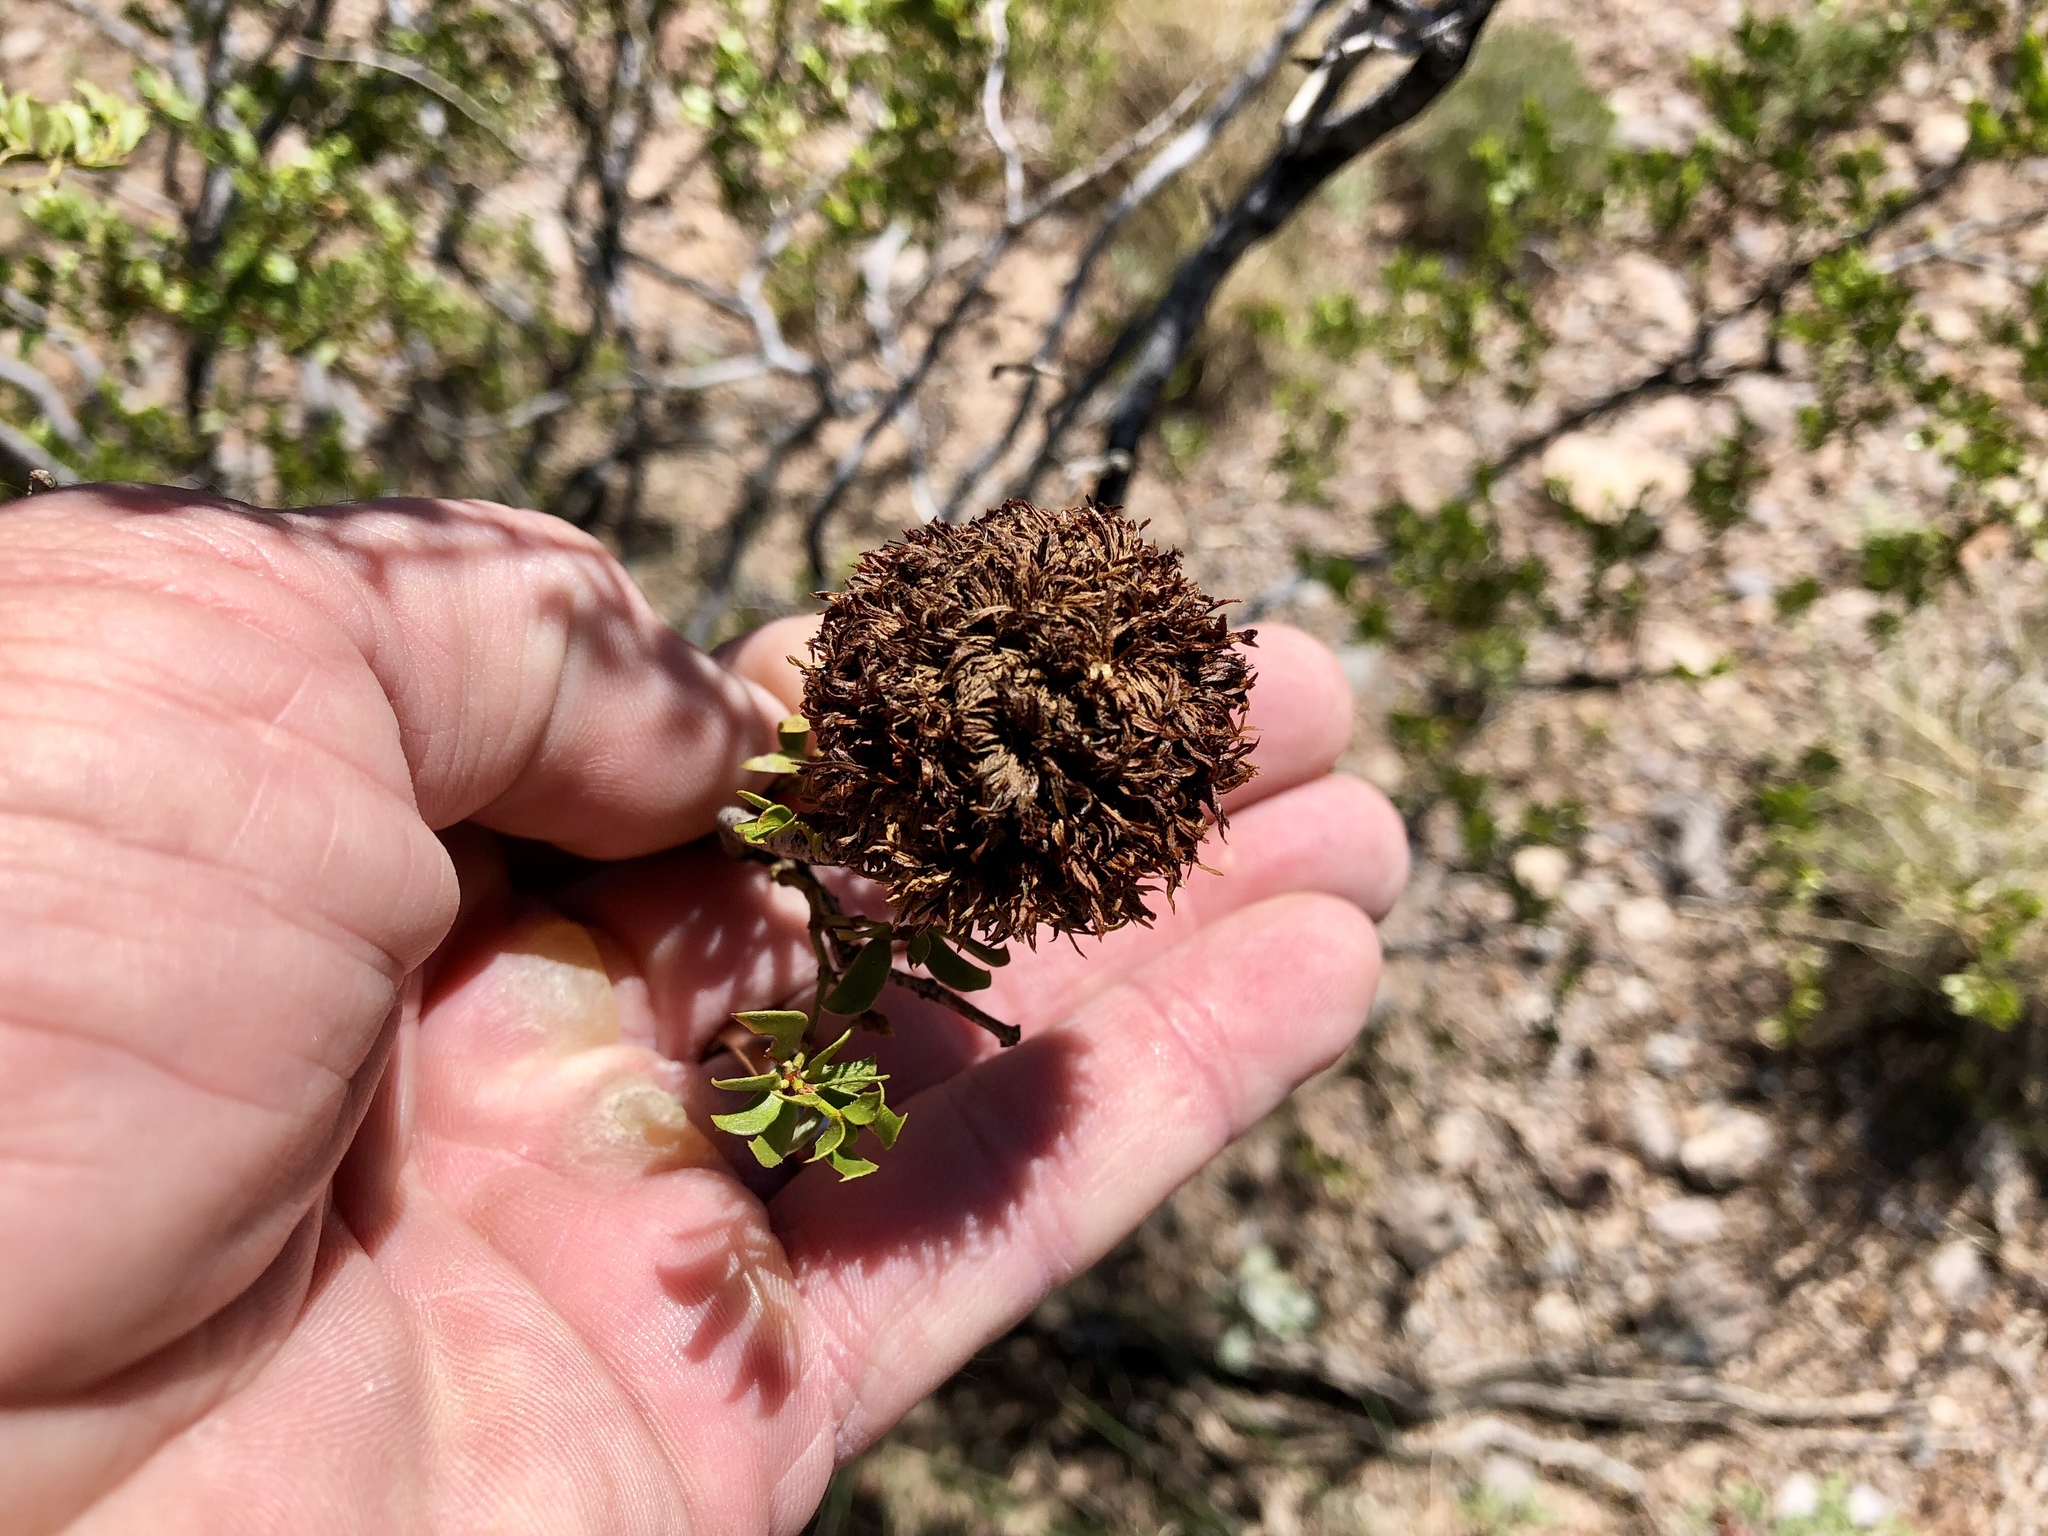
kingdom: Animalia
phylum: Arthropoda
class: Insecta
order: Diptera
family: Cecidomyiidae
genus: Asphondylia
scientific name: Asphondylia auripila
